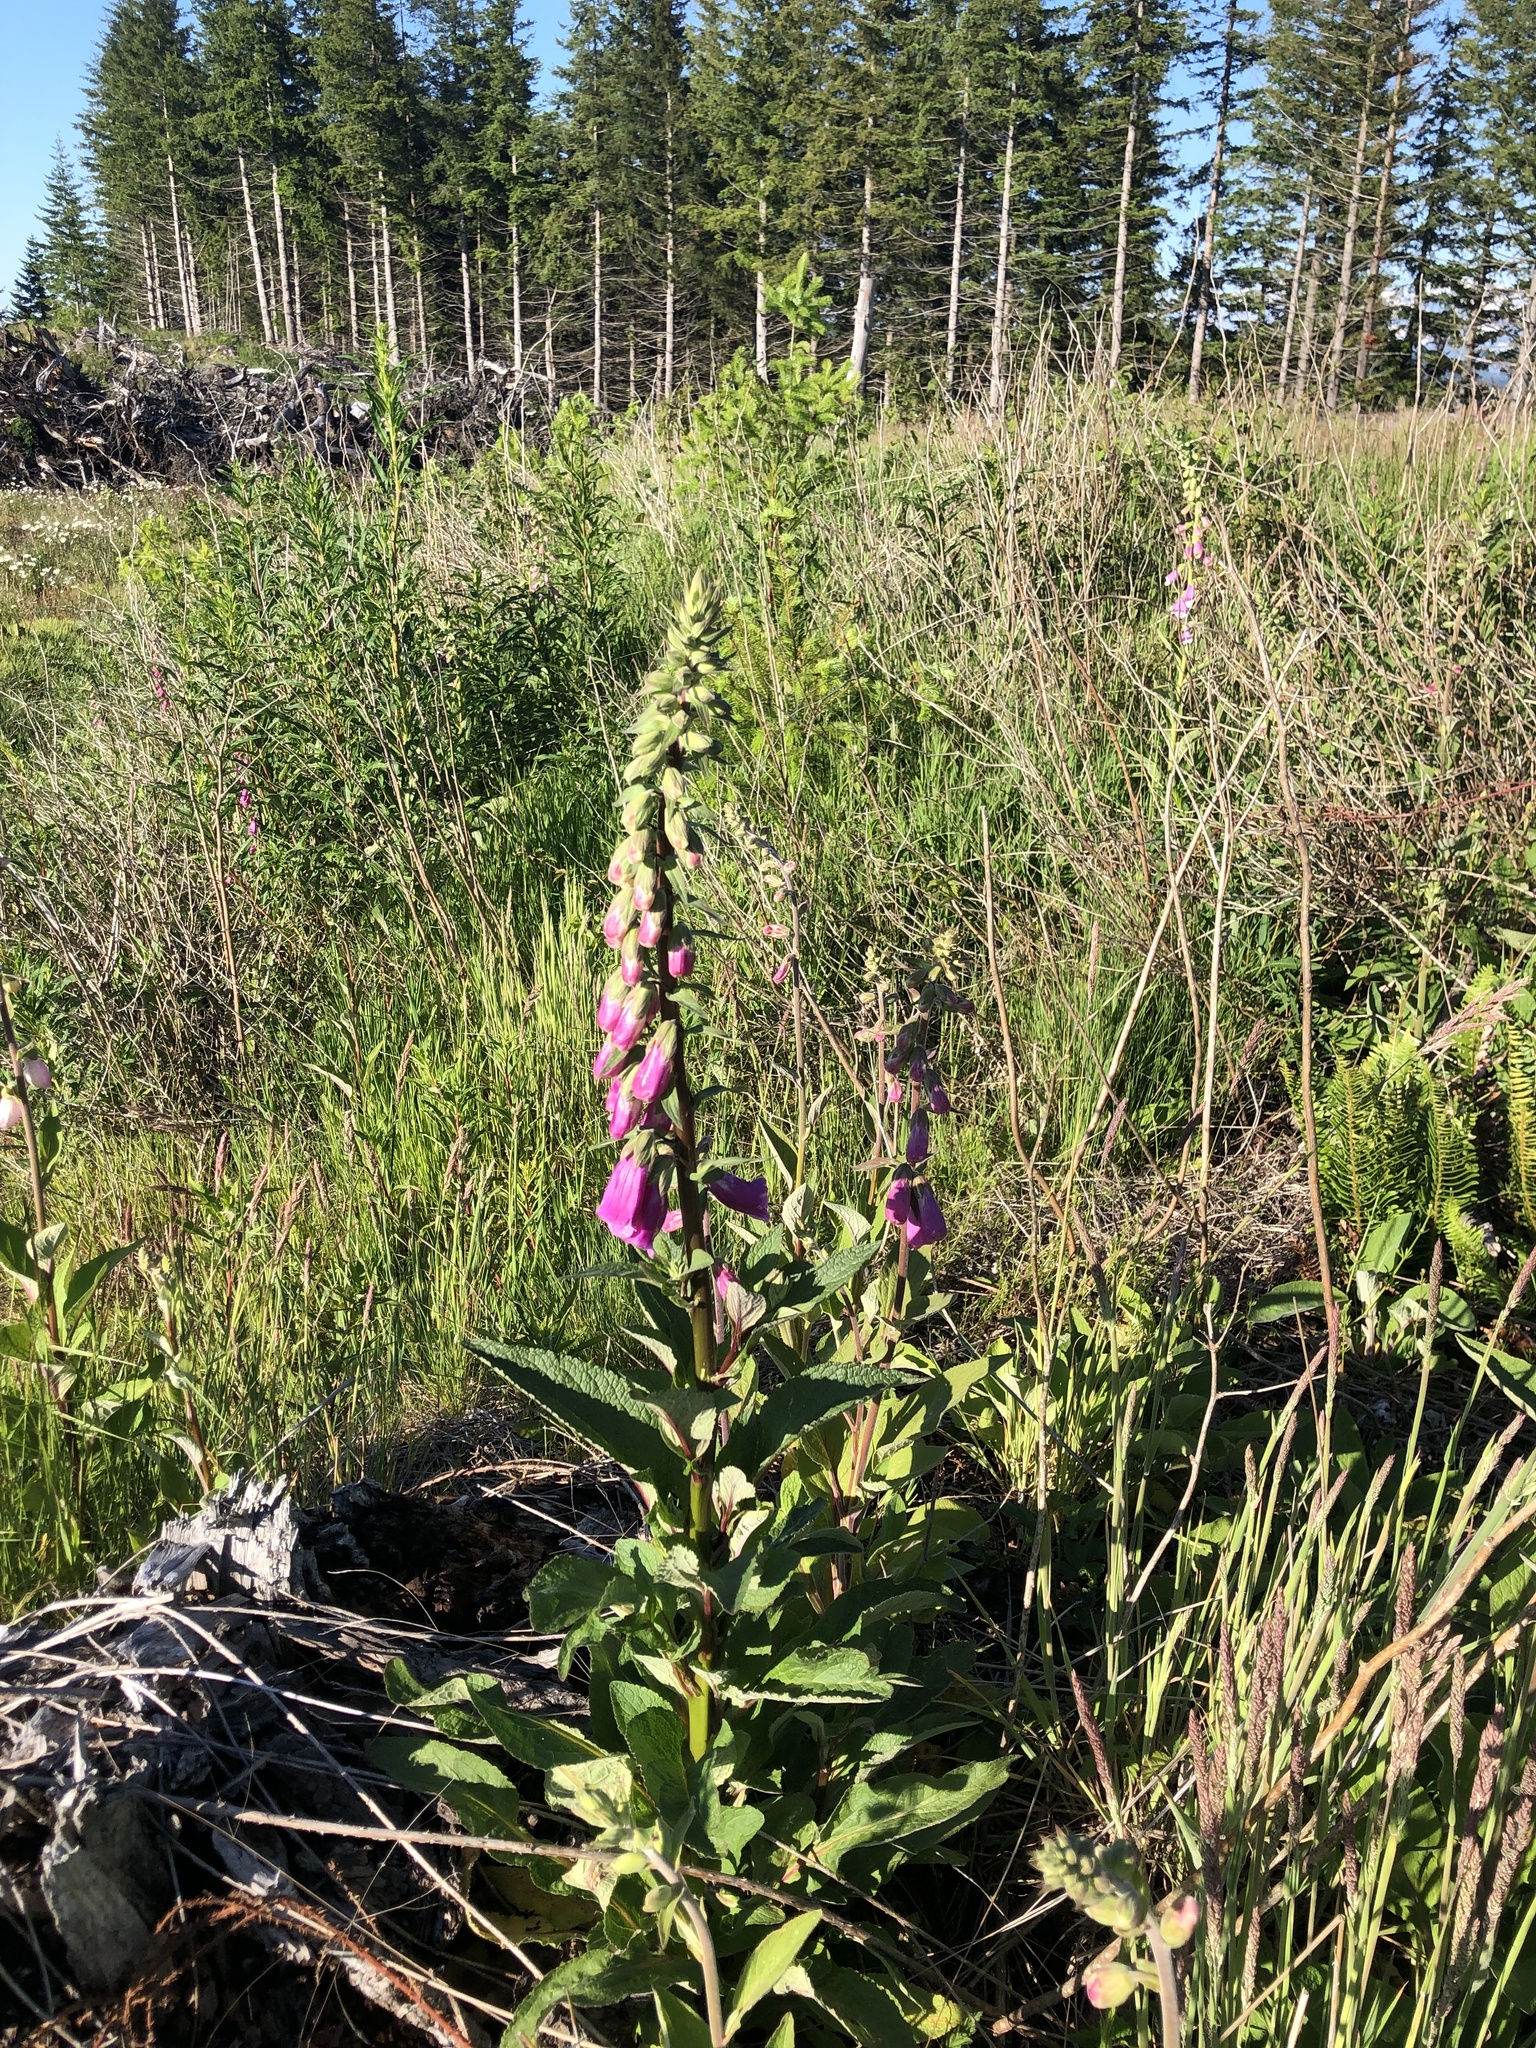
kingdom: Plantae
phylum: Tracheophyta
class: Magnoliopsida
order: Lamiales
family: Plantaginaceae
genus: Digitalis
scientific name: Digitalis purpurea
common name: Foxglove
